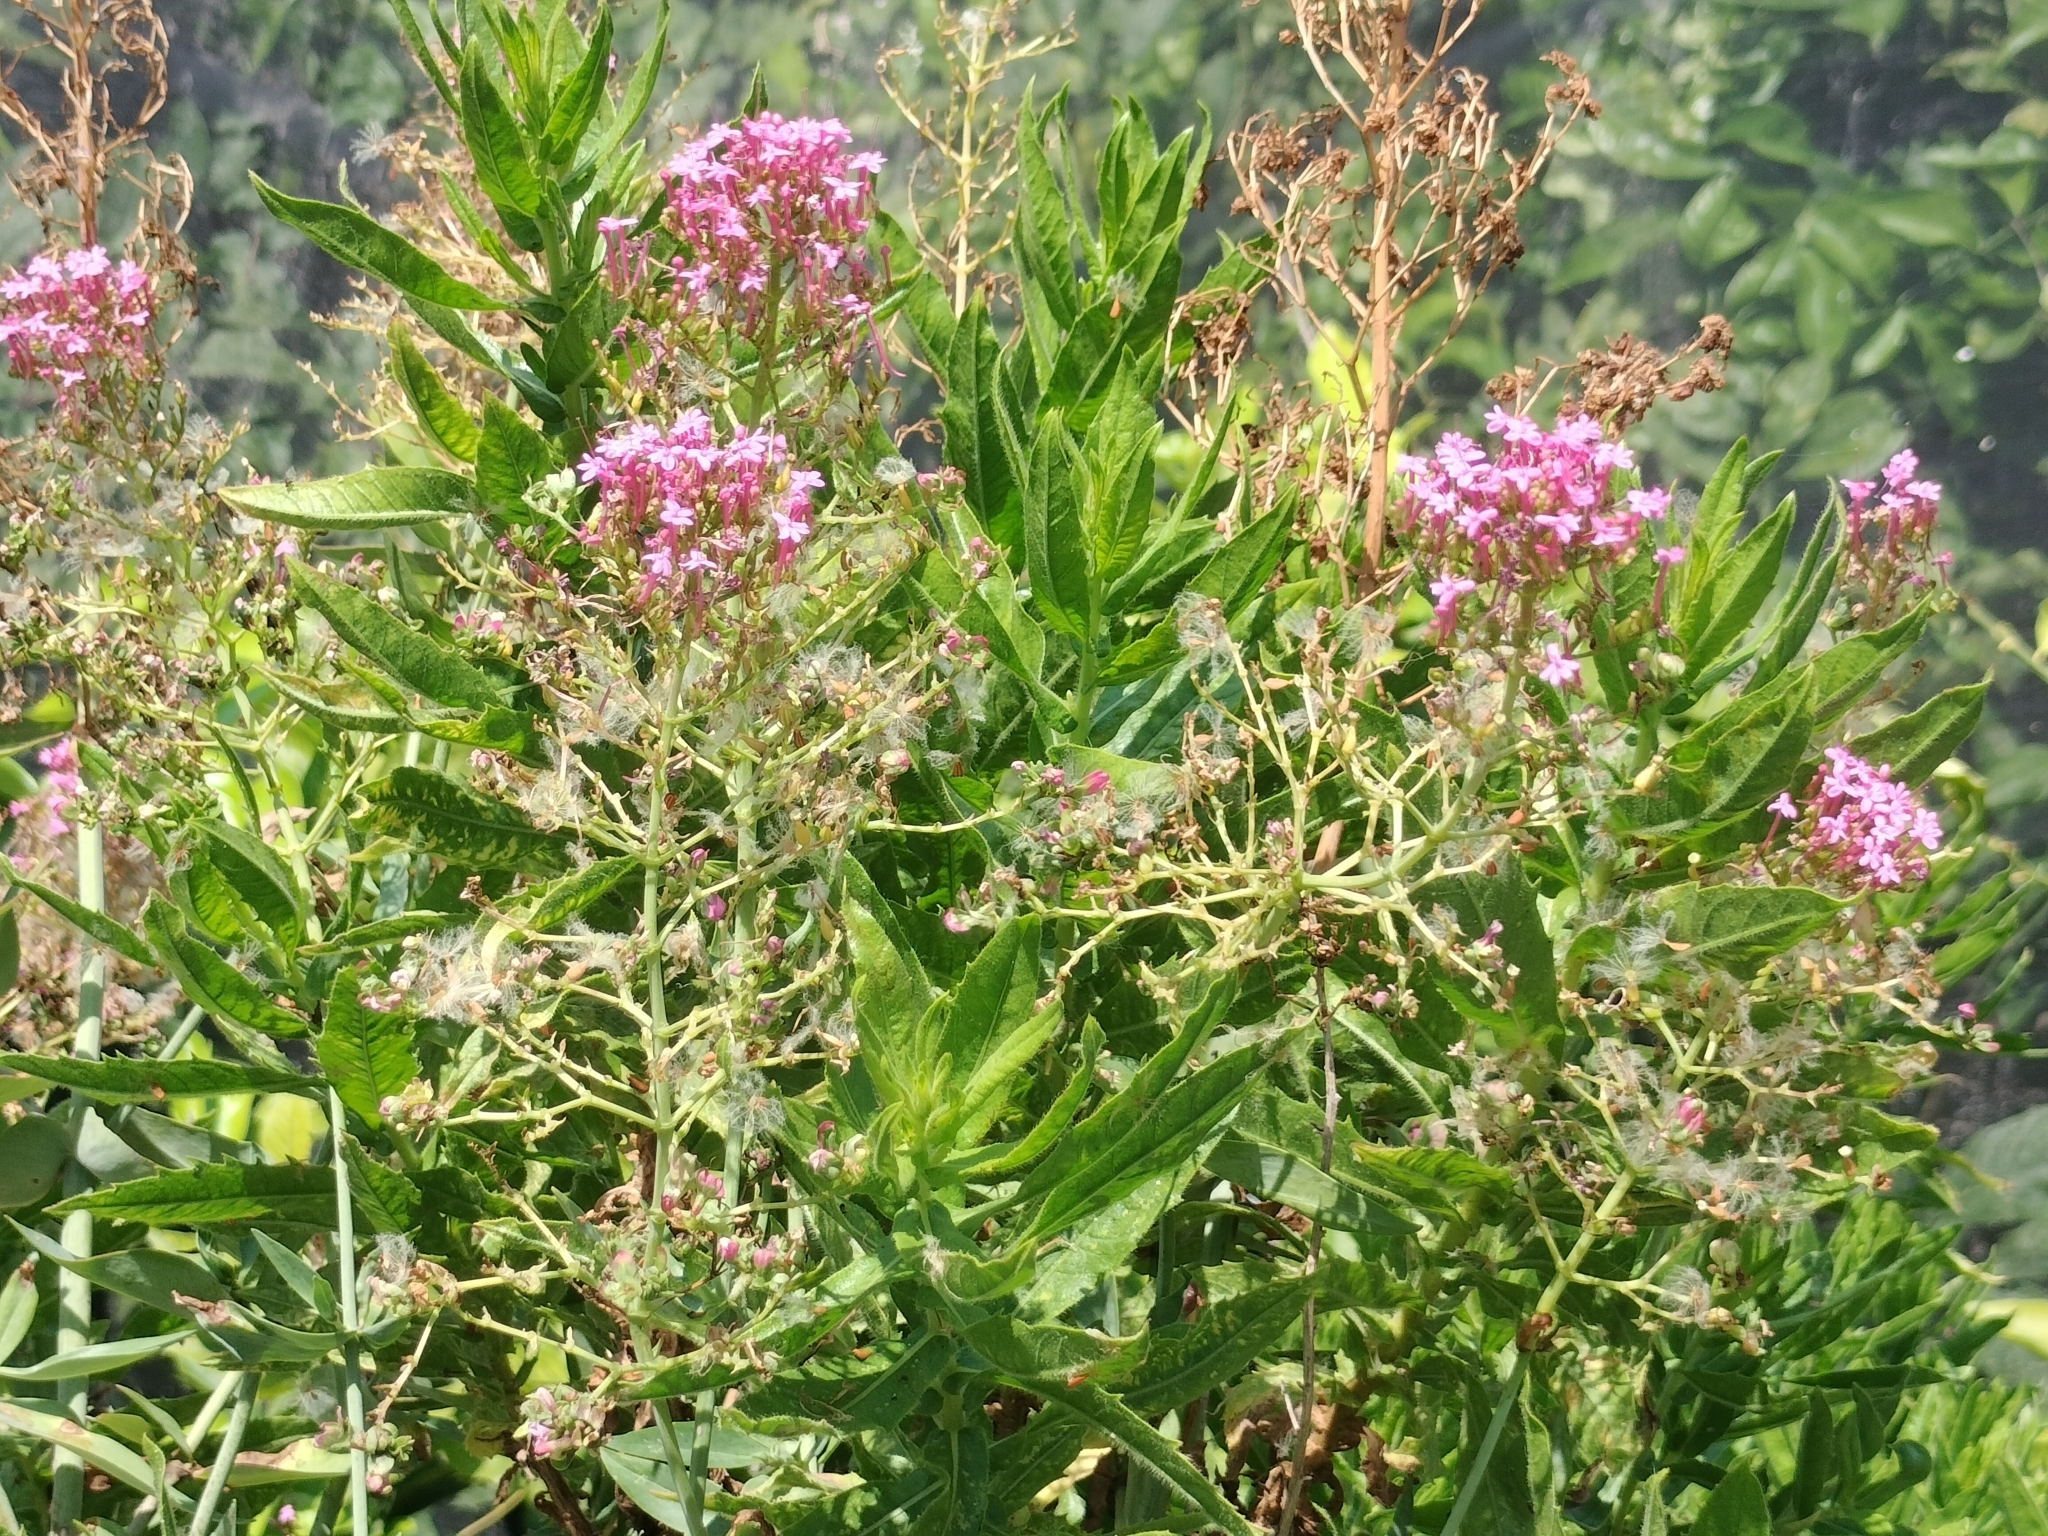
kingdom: Plantae
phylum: Tracheophyta
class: Magnoliopsida
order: Dipsacales
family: Caprifoliaceae
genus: Centranthus
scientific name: Centranthus ruber
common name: Red valerian
